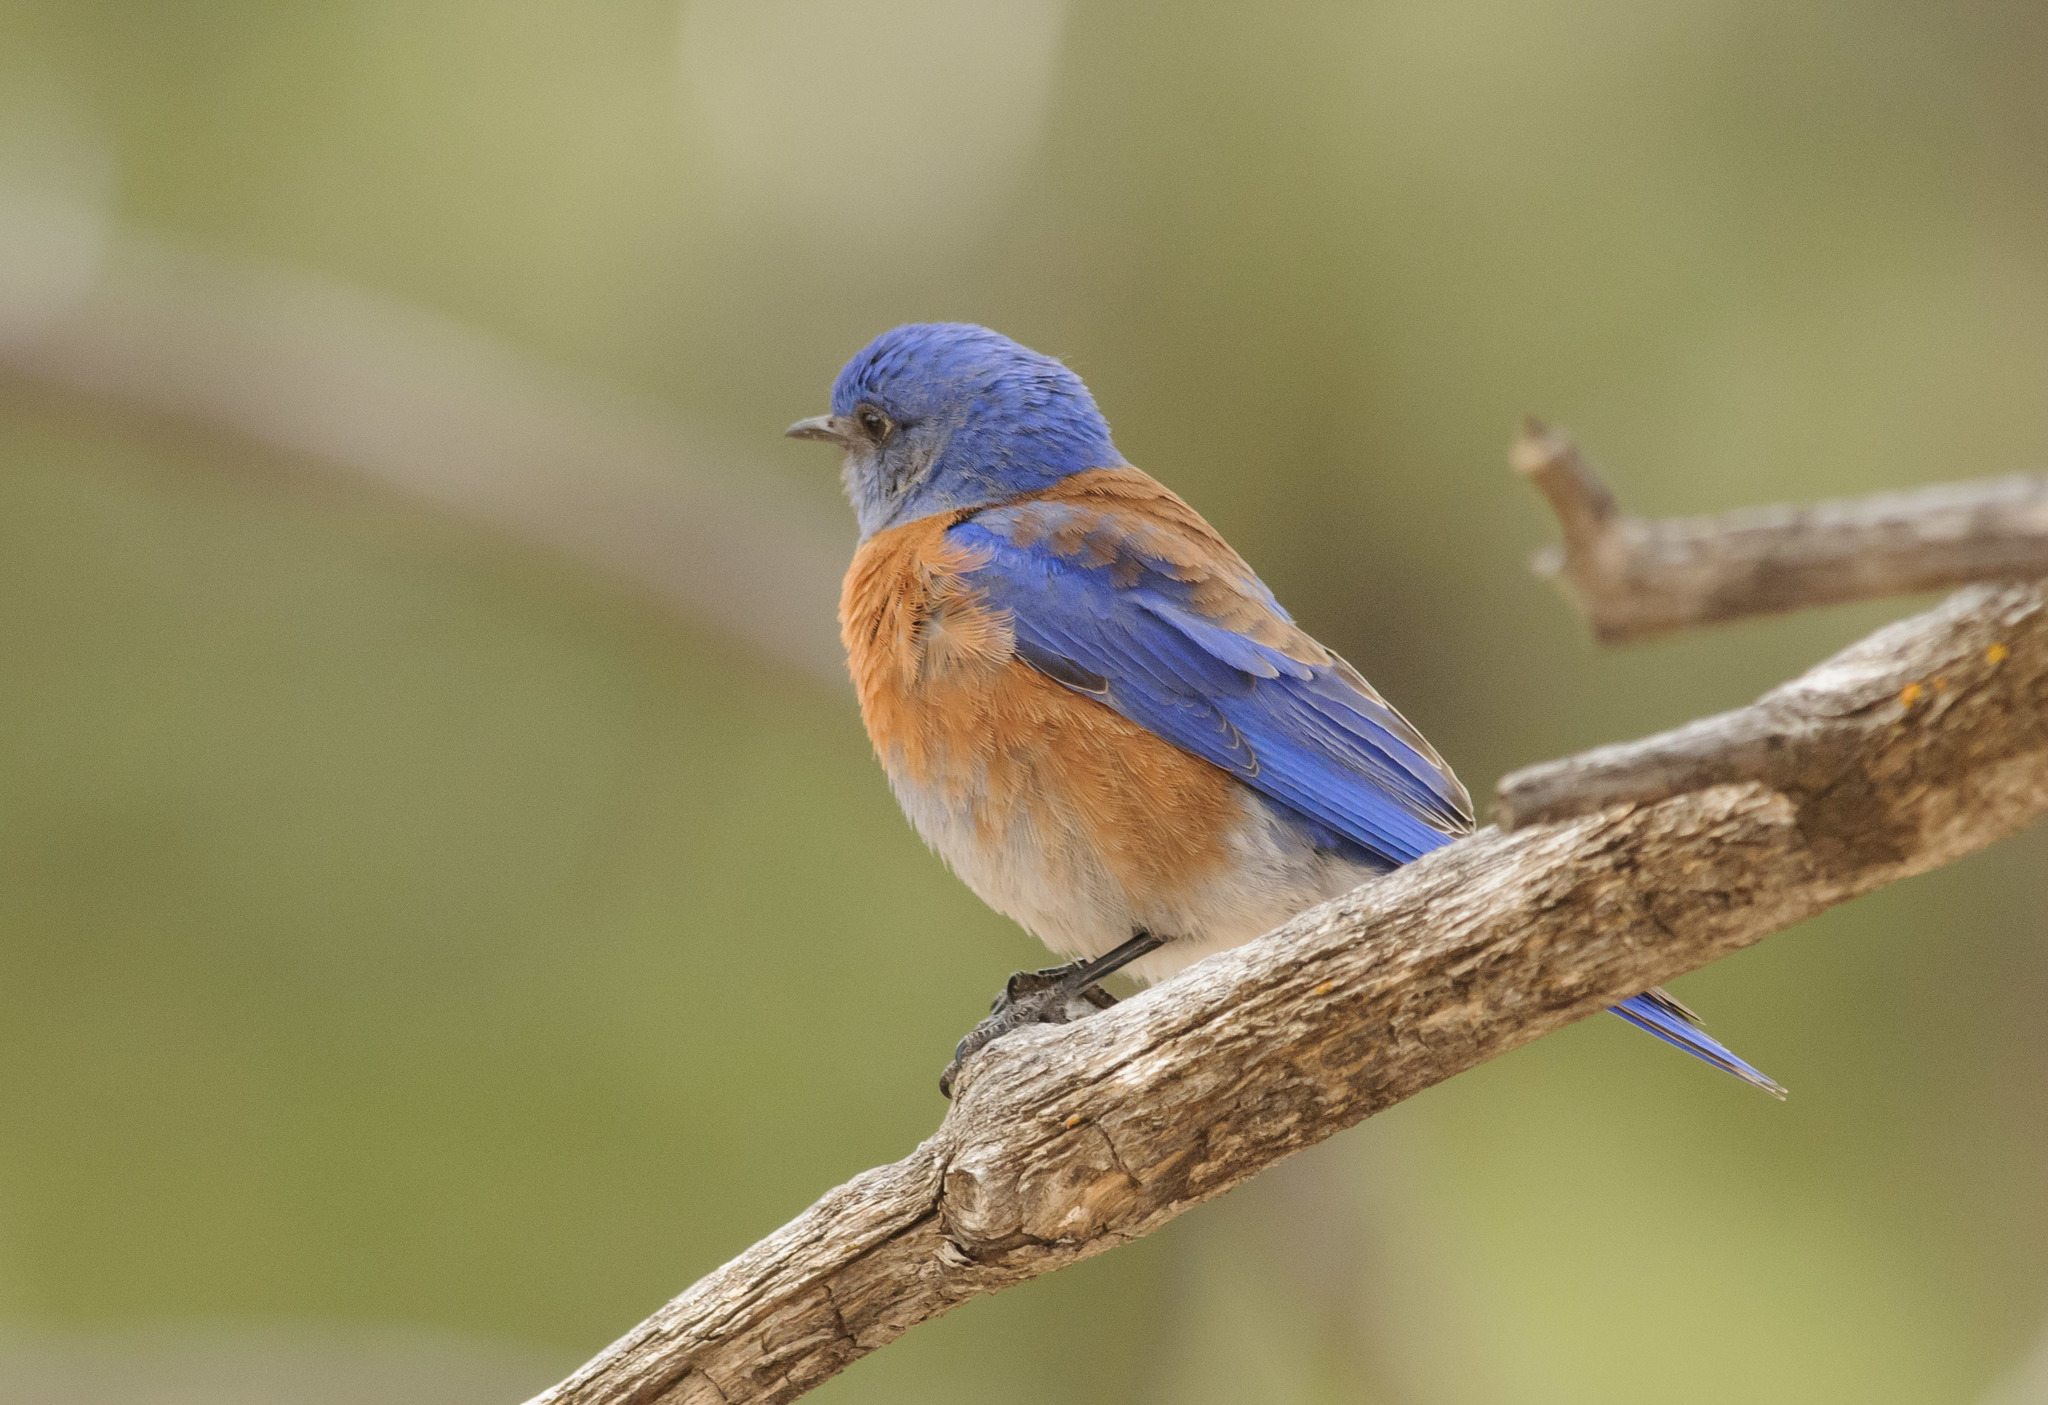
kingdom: Animalia
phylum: Chordata
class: Aves
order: Passeriformes
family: Turdidae
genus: Sialia
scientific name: Sialia mexicana
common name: Western bluebird
